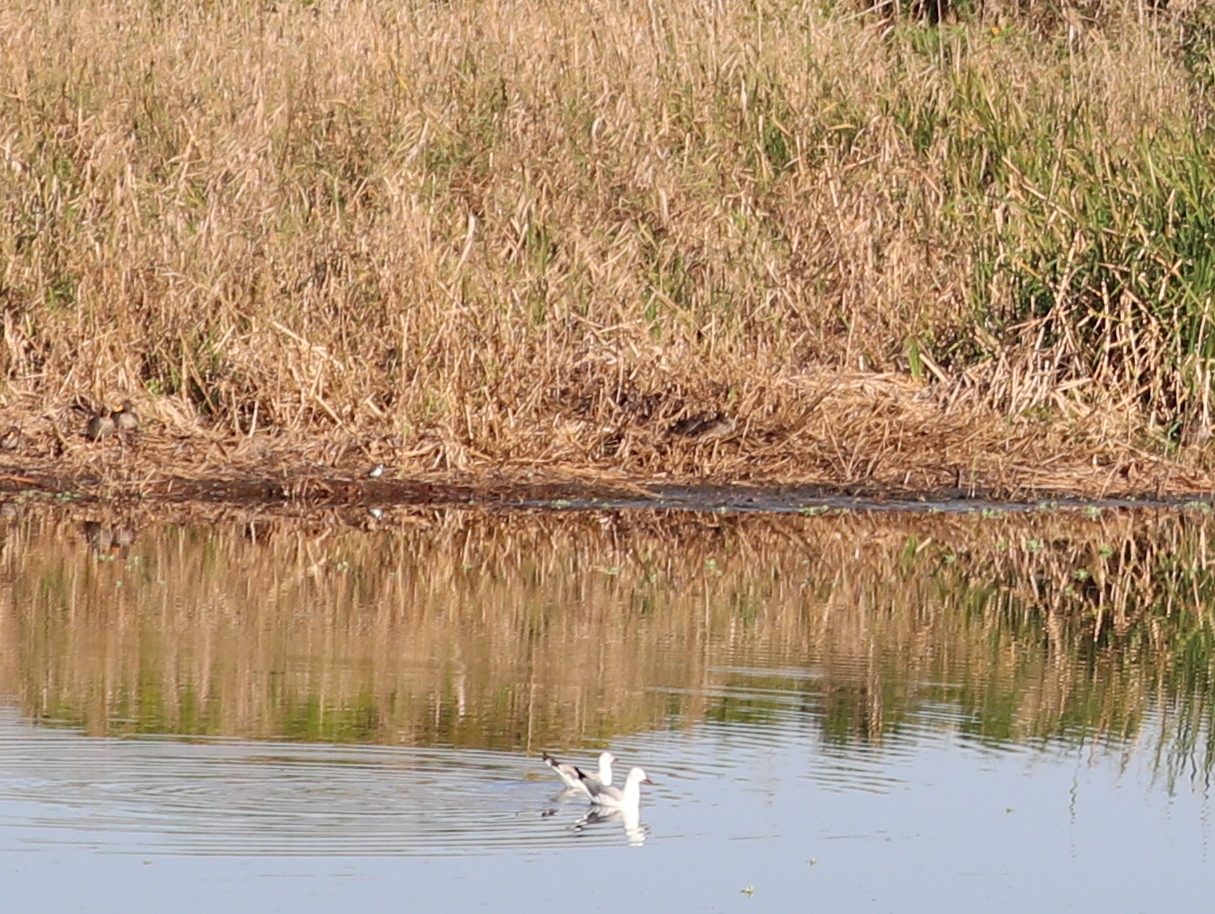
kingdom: Animalia
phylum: Chordata
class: Aves
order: Charadriiformes
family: Laridae
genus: Chroicocephalus
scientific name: Chroicocephalus cirrocephalus
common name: Grey-headed gull
